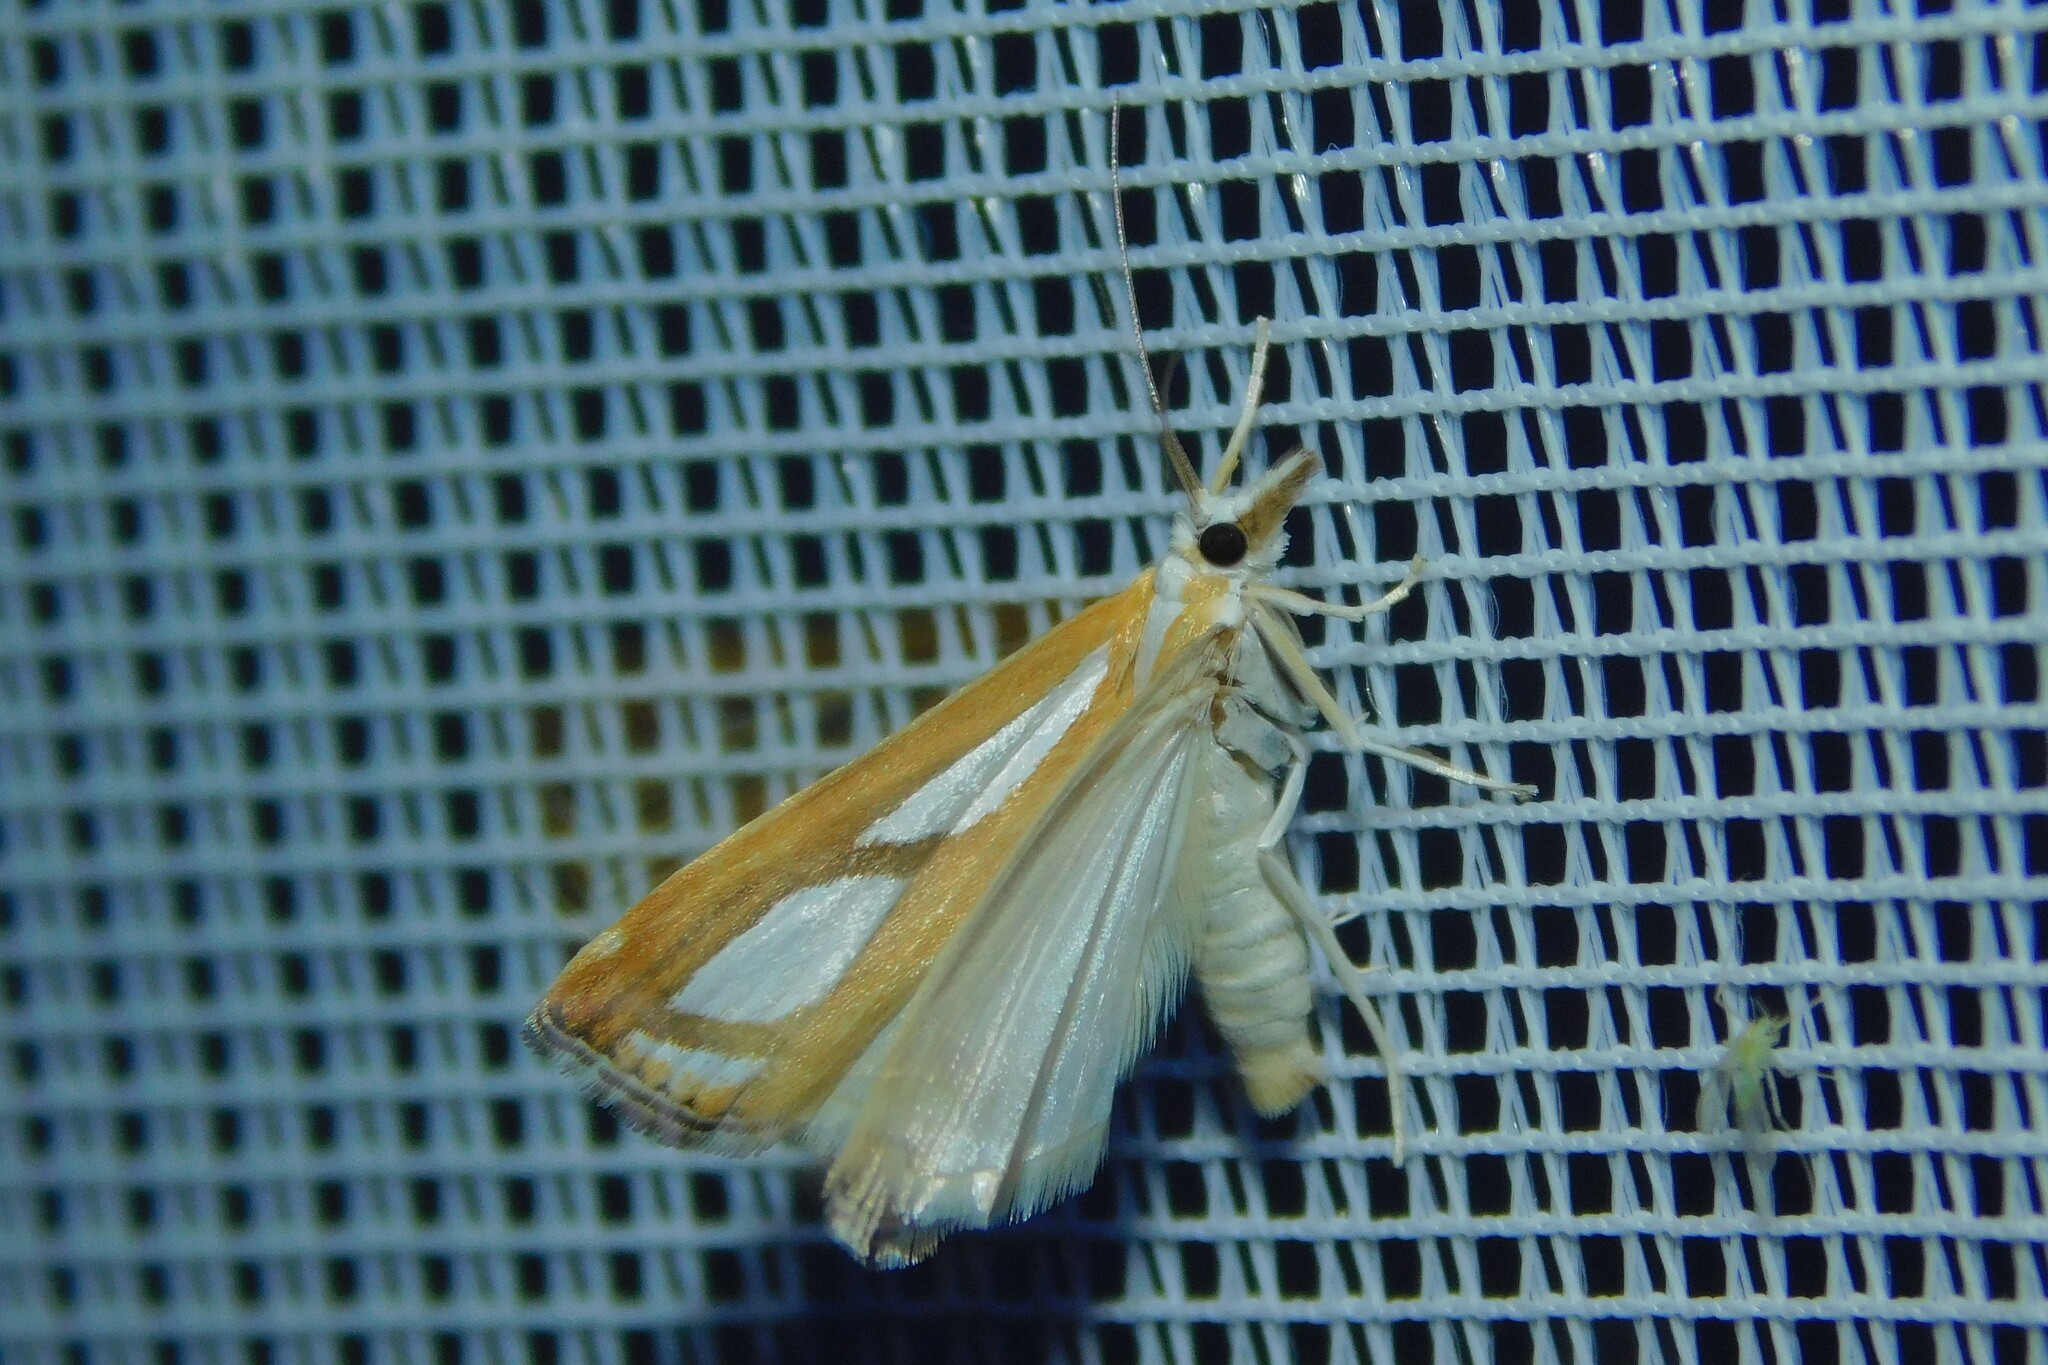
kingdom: Animalia
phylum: Arthropoda
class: Insecta
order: Lepidoptera
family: Crambidae
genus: Catoptria
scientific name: Catoptria
